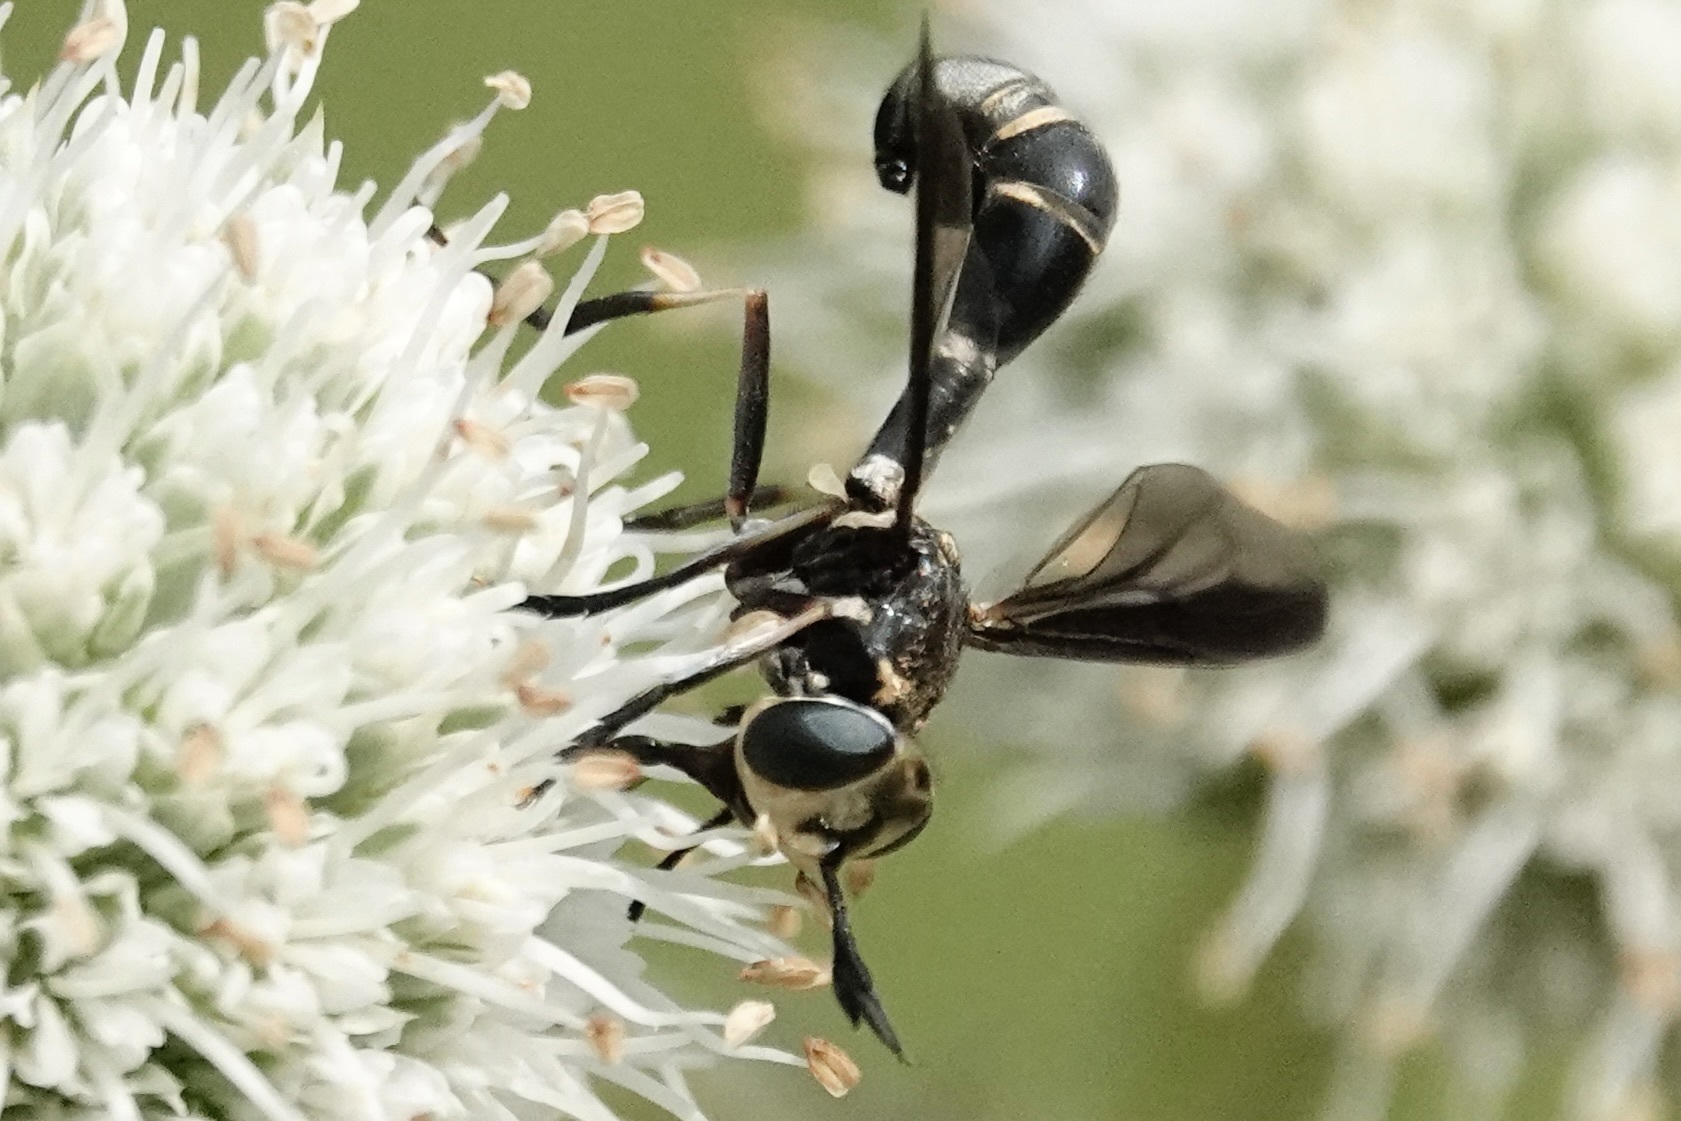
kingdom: Animalia
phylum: Arthropoda
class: Insecta
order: Diptera
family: Conopidae
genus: Physoconops
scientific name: Physoconops brachyrhynchus
